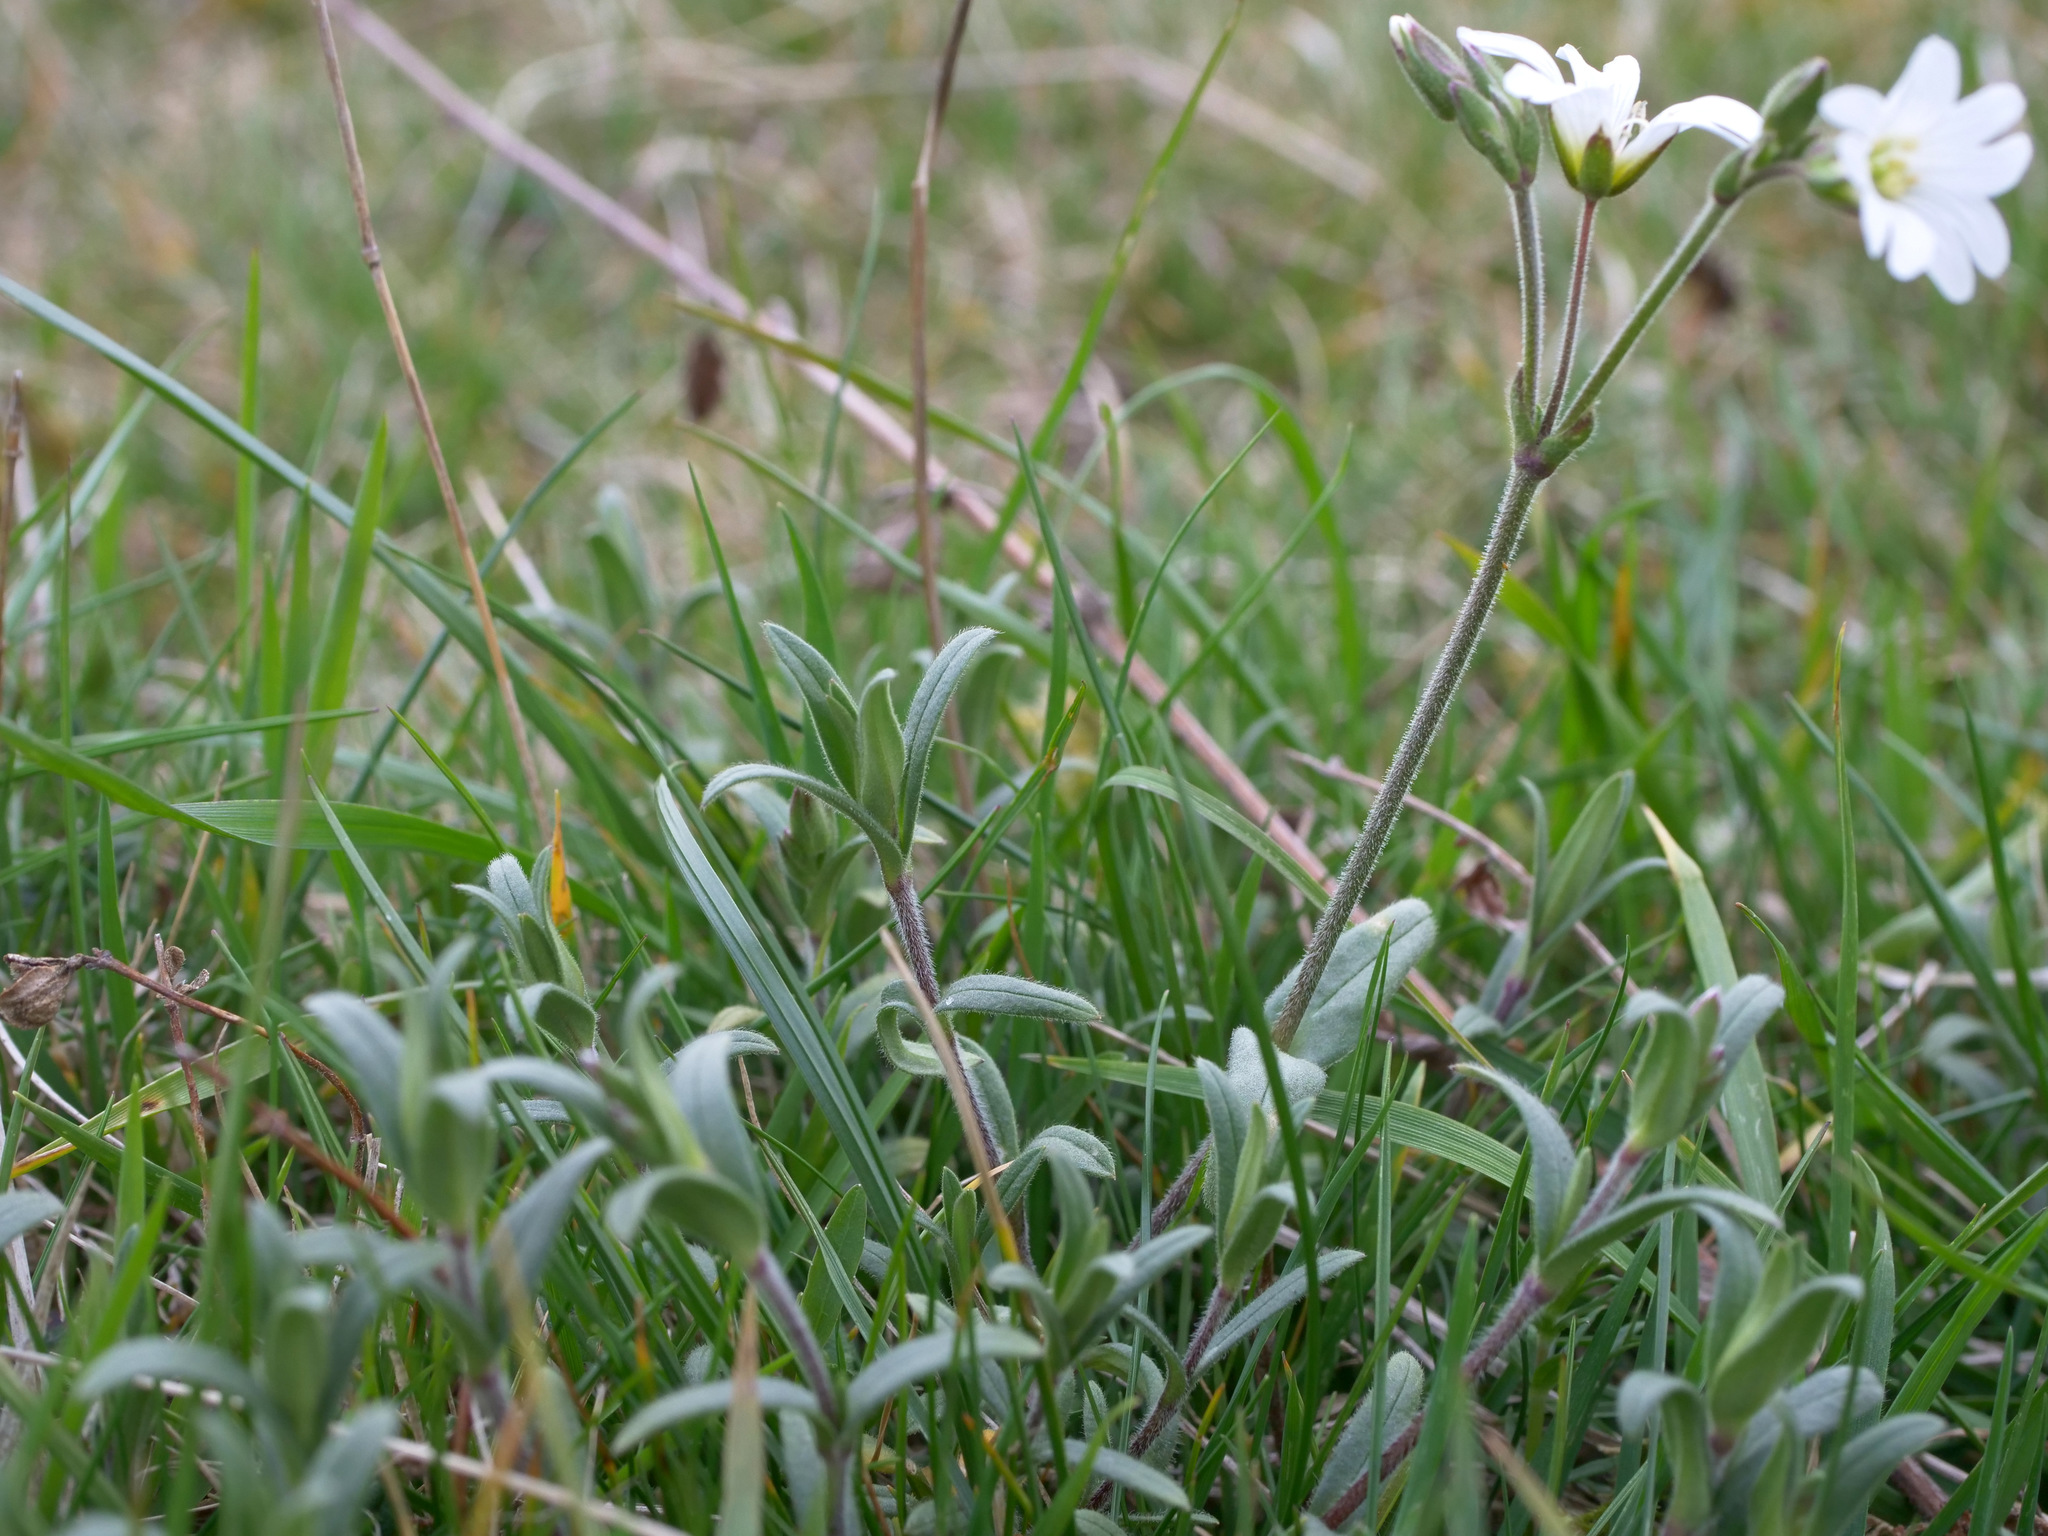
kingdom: Plantae
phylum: Tracheophyta
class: Magnoliopsida
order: Caryophyllales
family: Caryophyllaceae
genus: Cerastium
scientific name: Cerastium arvense
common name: Field mouse-ear
